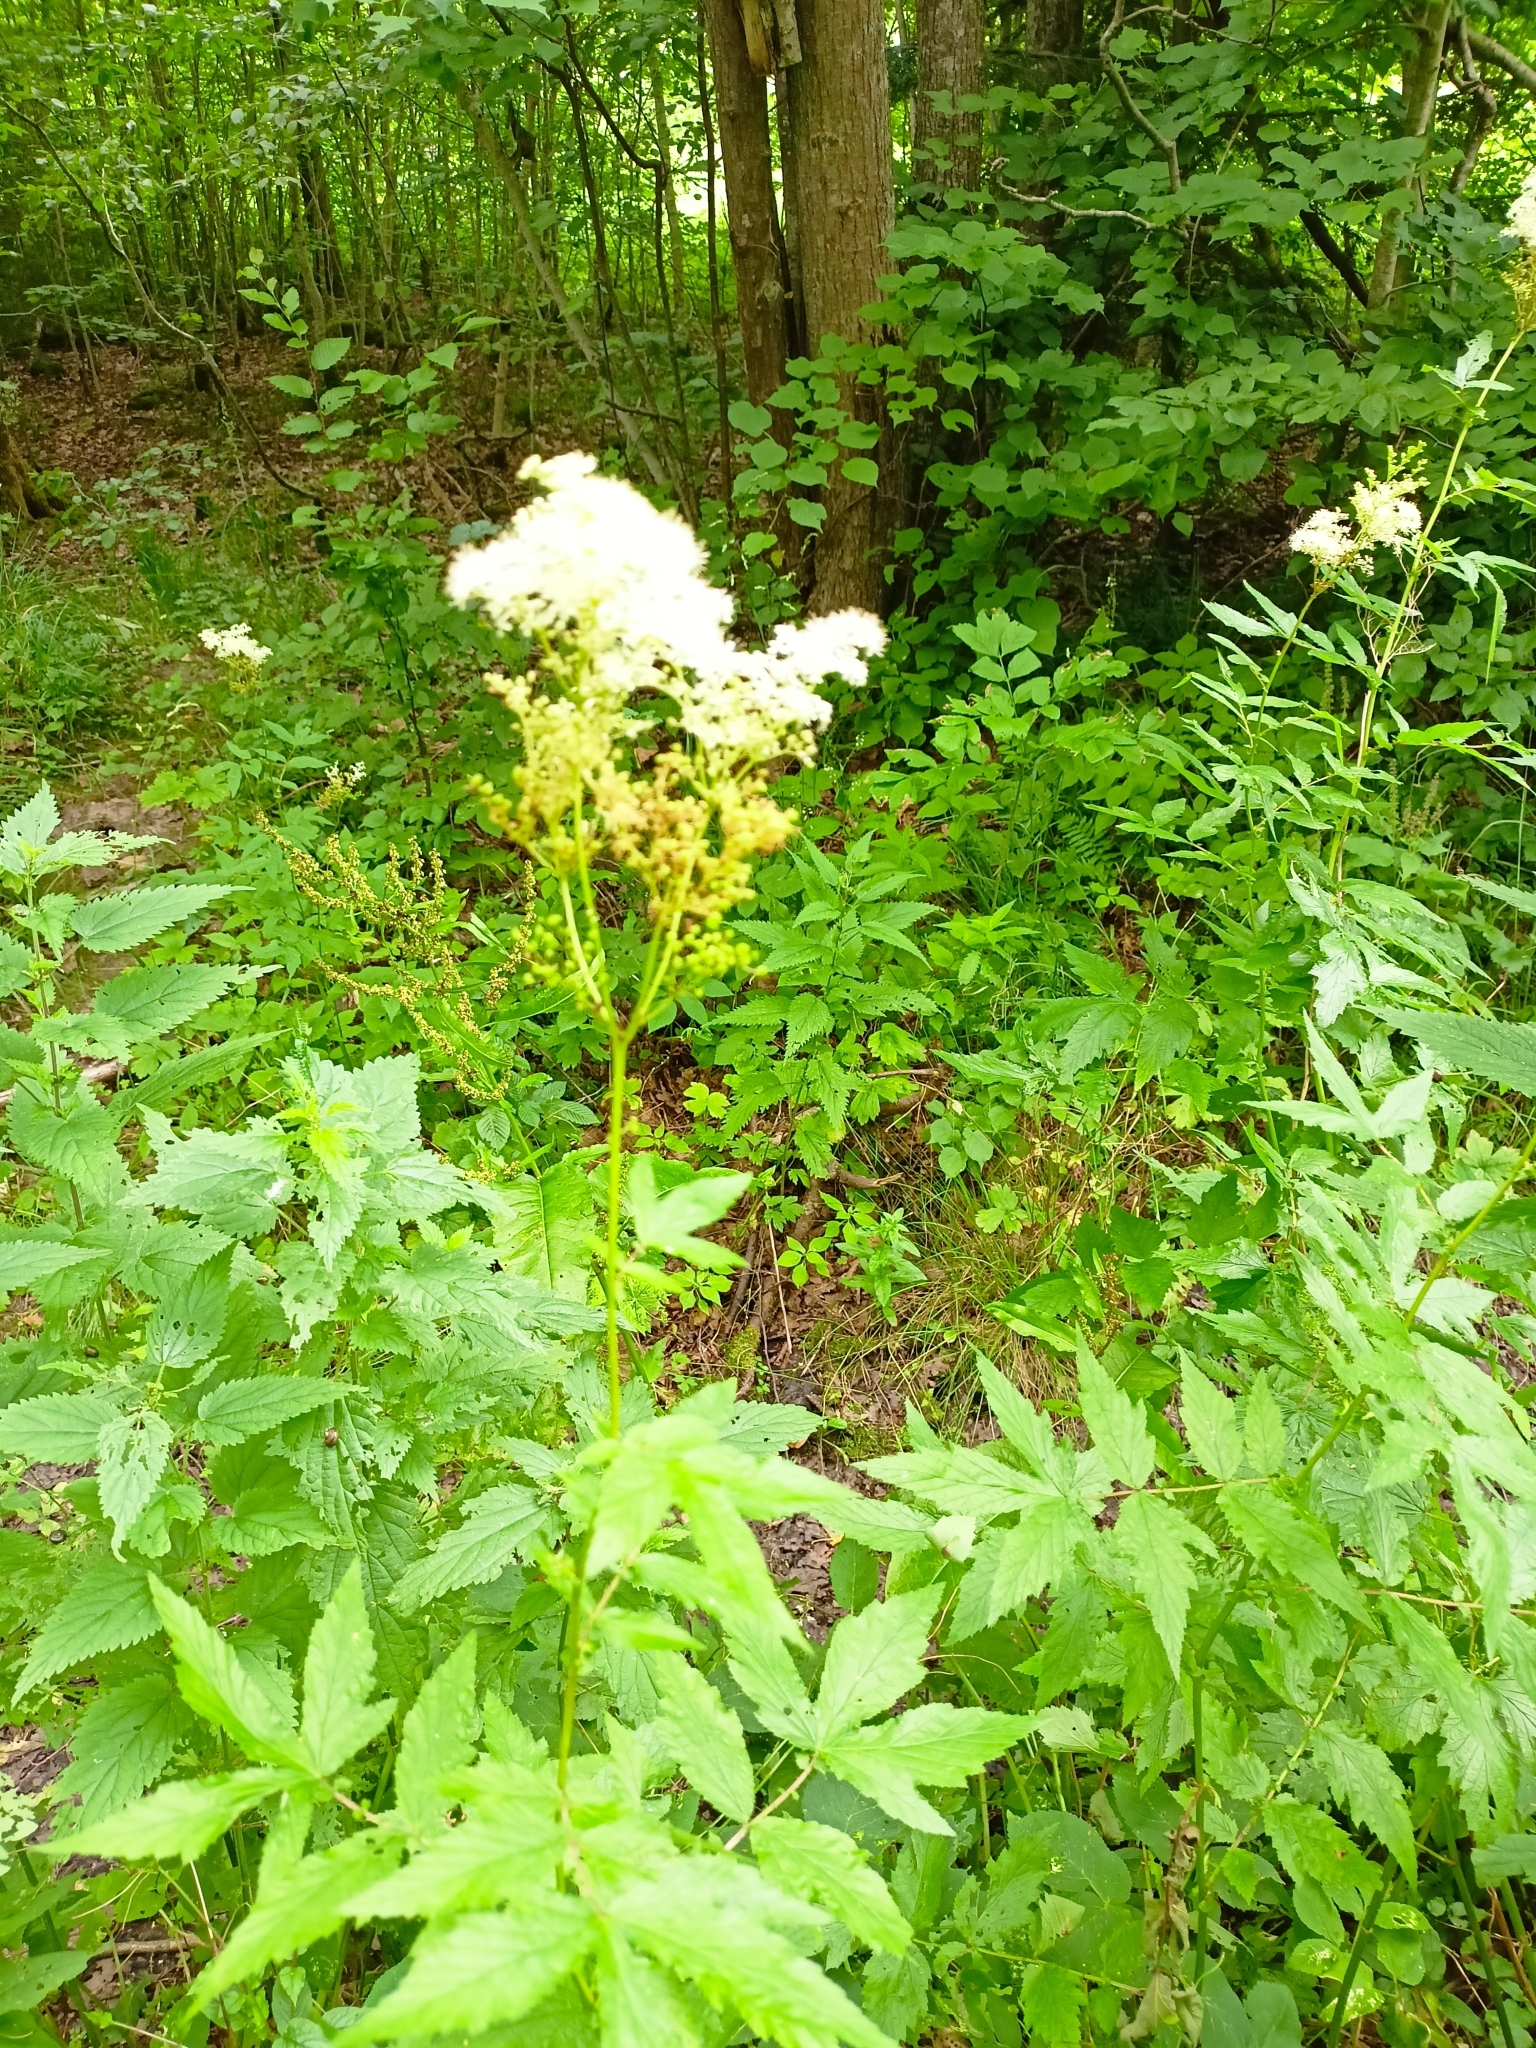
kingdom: Plantae
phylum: Tracheophyta
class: Magnoliopsida
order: Rosales
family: Rosaceae
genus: Filipendula
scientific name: Filipendula ulmaria
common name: Meadowsweet
